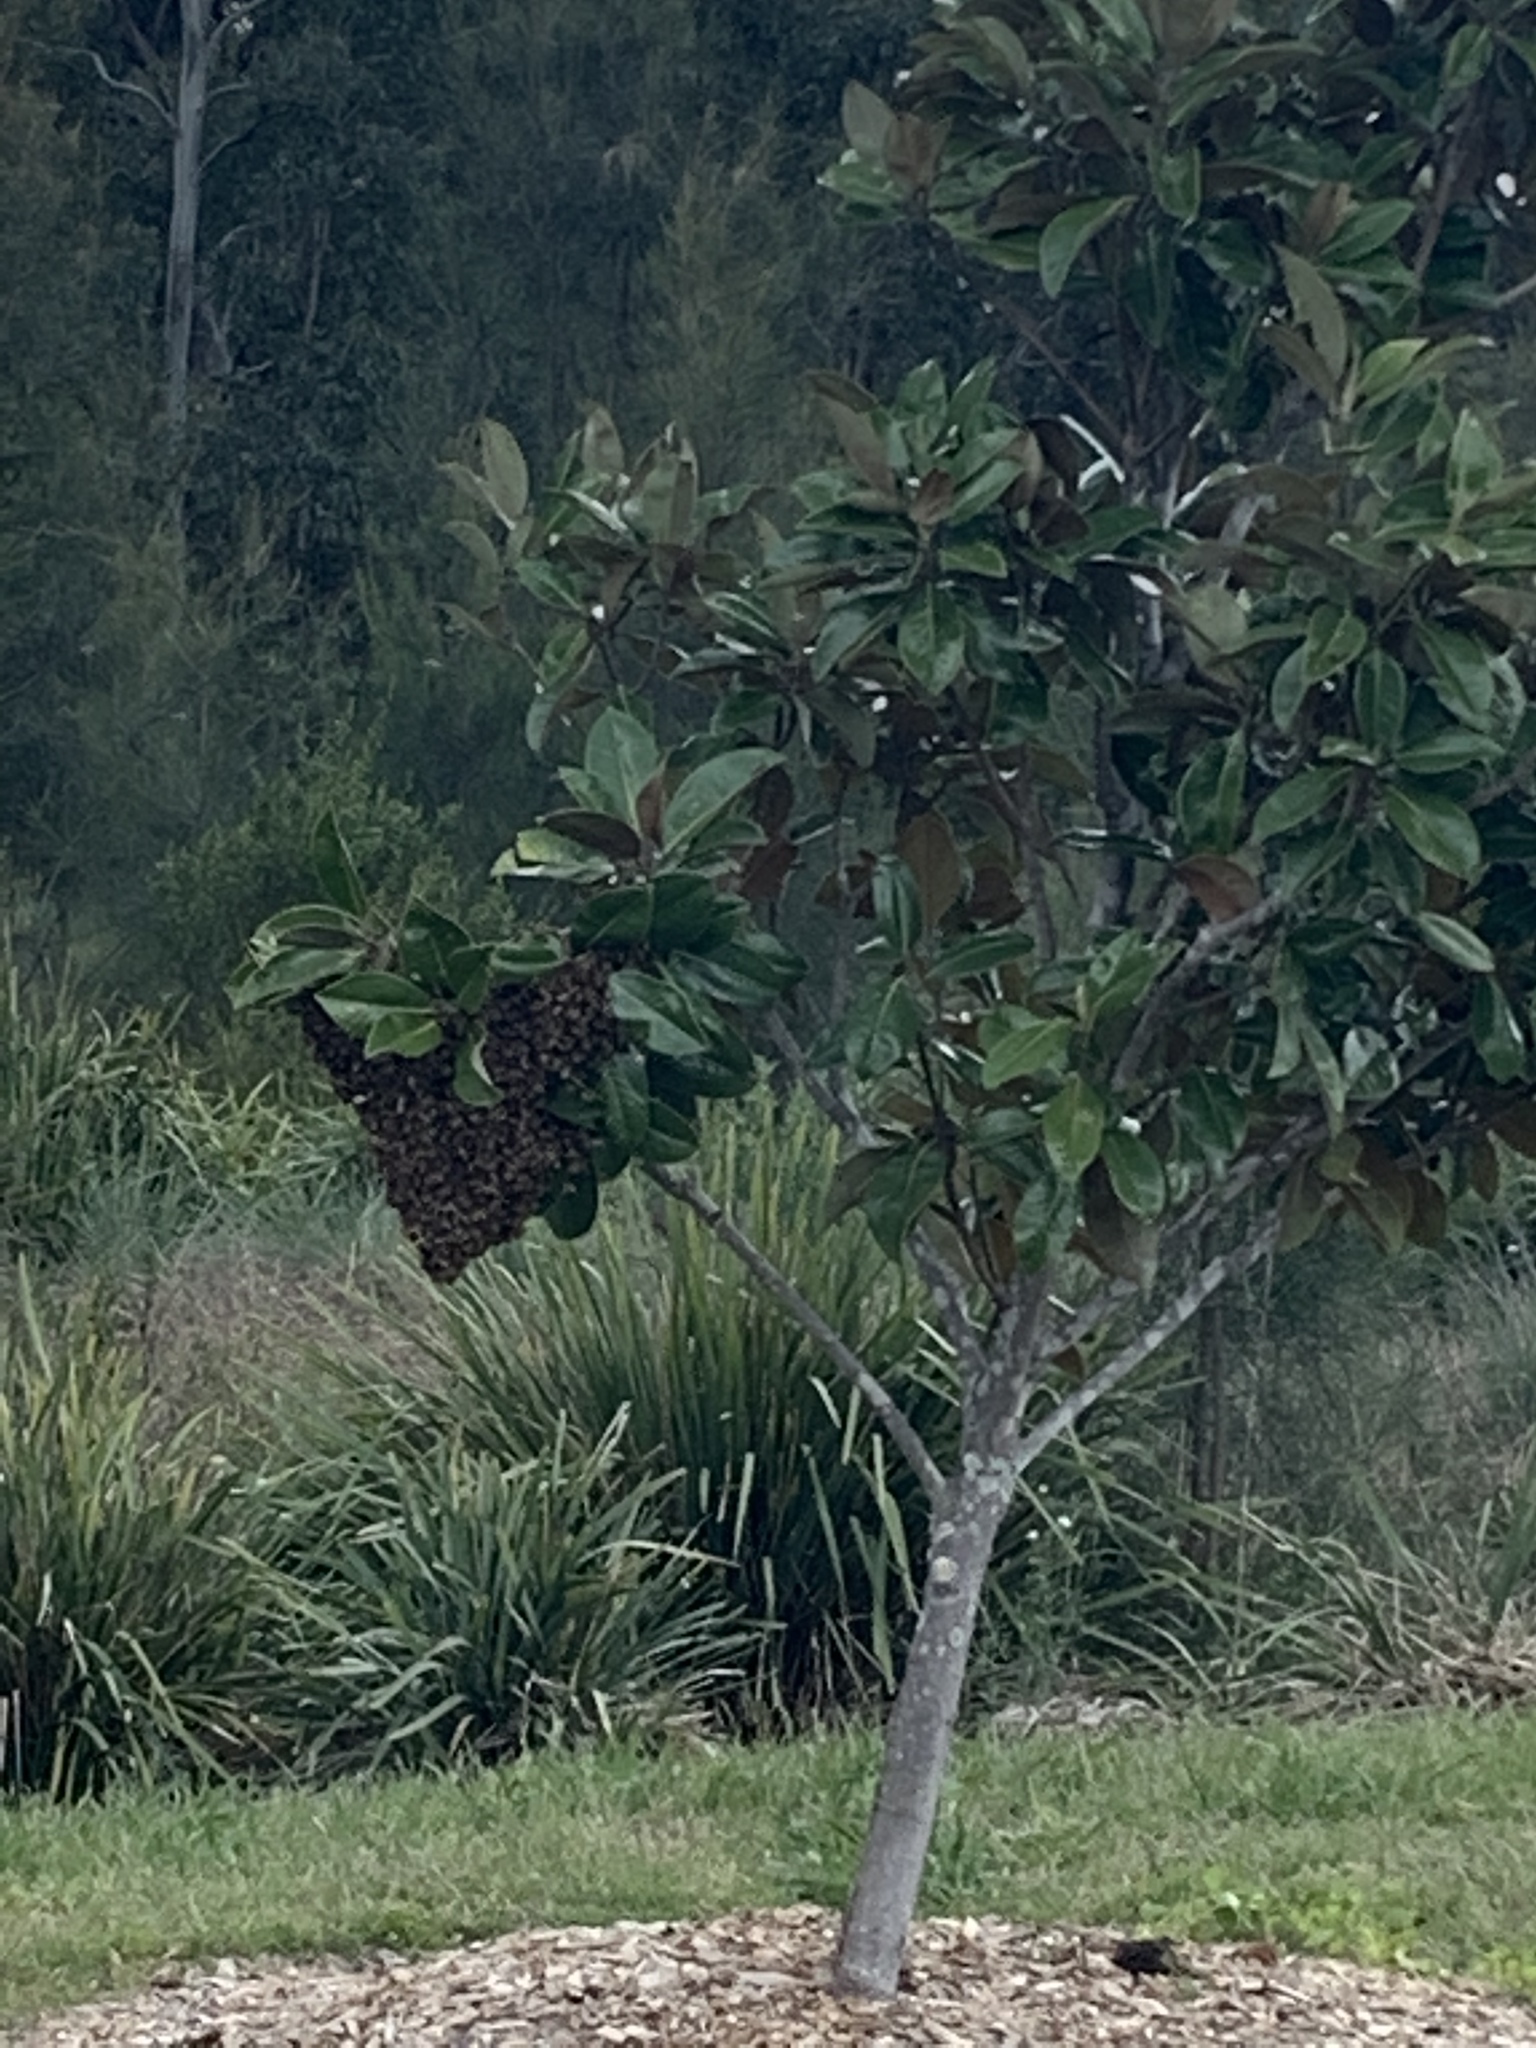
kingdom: Animalia
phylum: Arthropoda
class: Insecta
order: Hymenoptera
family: Apidae
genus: Apis
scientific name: Apis mellifera
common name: Honey bee
